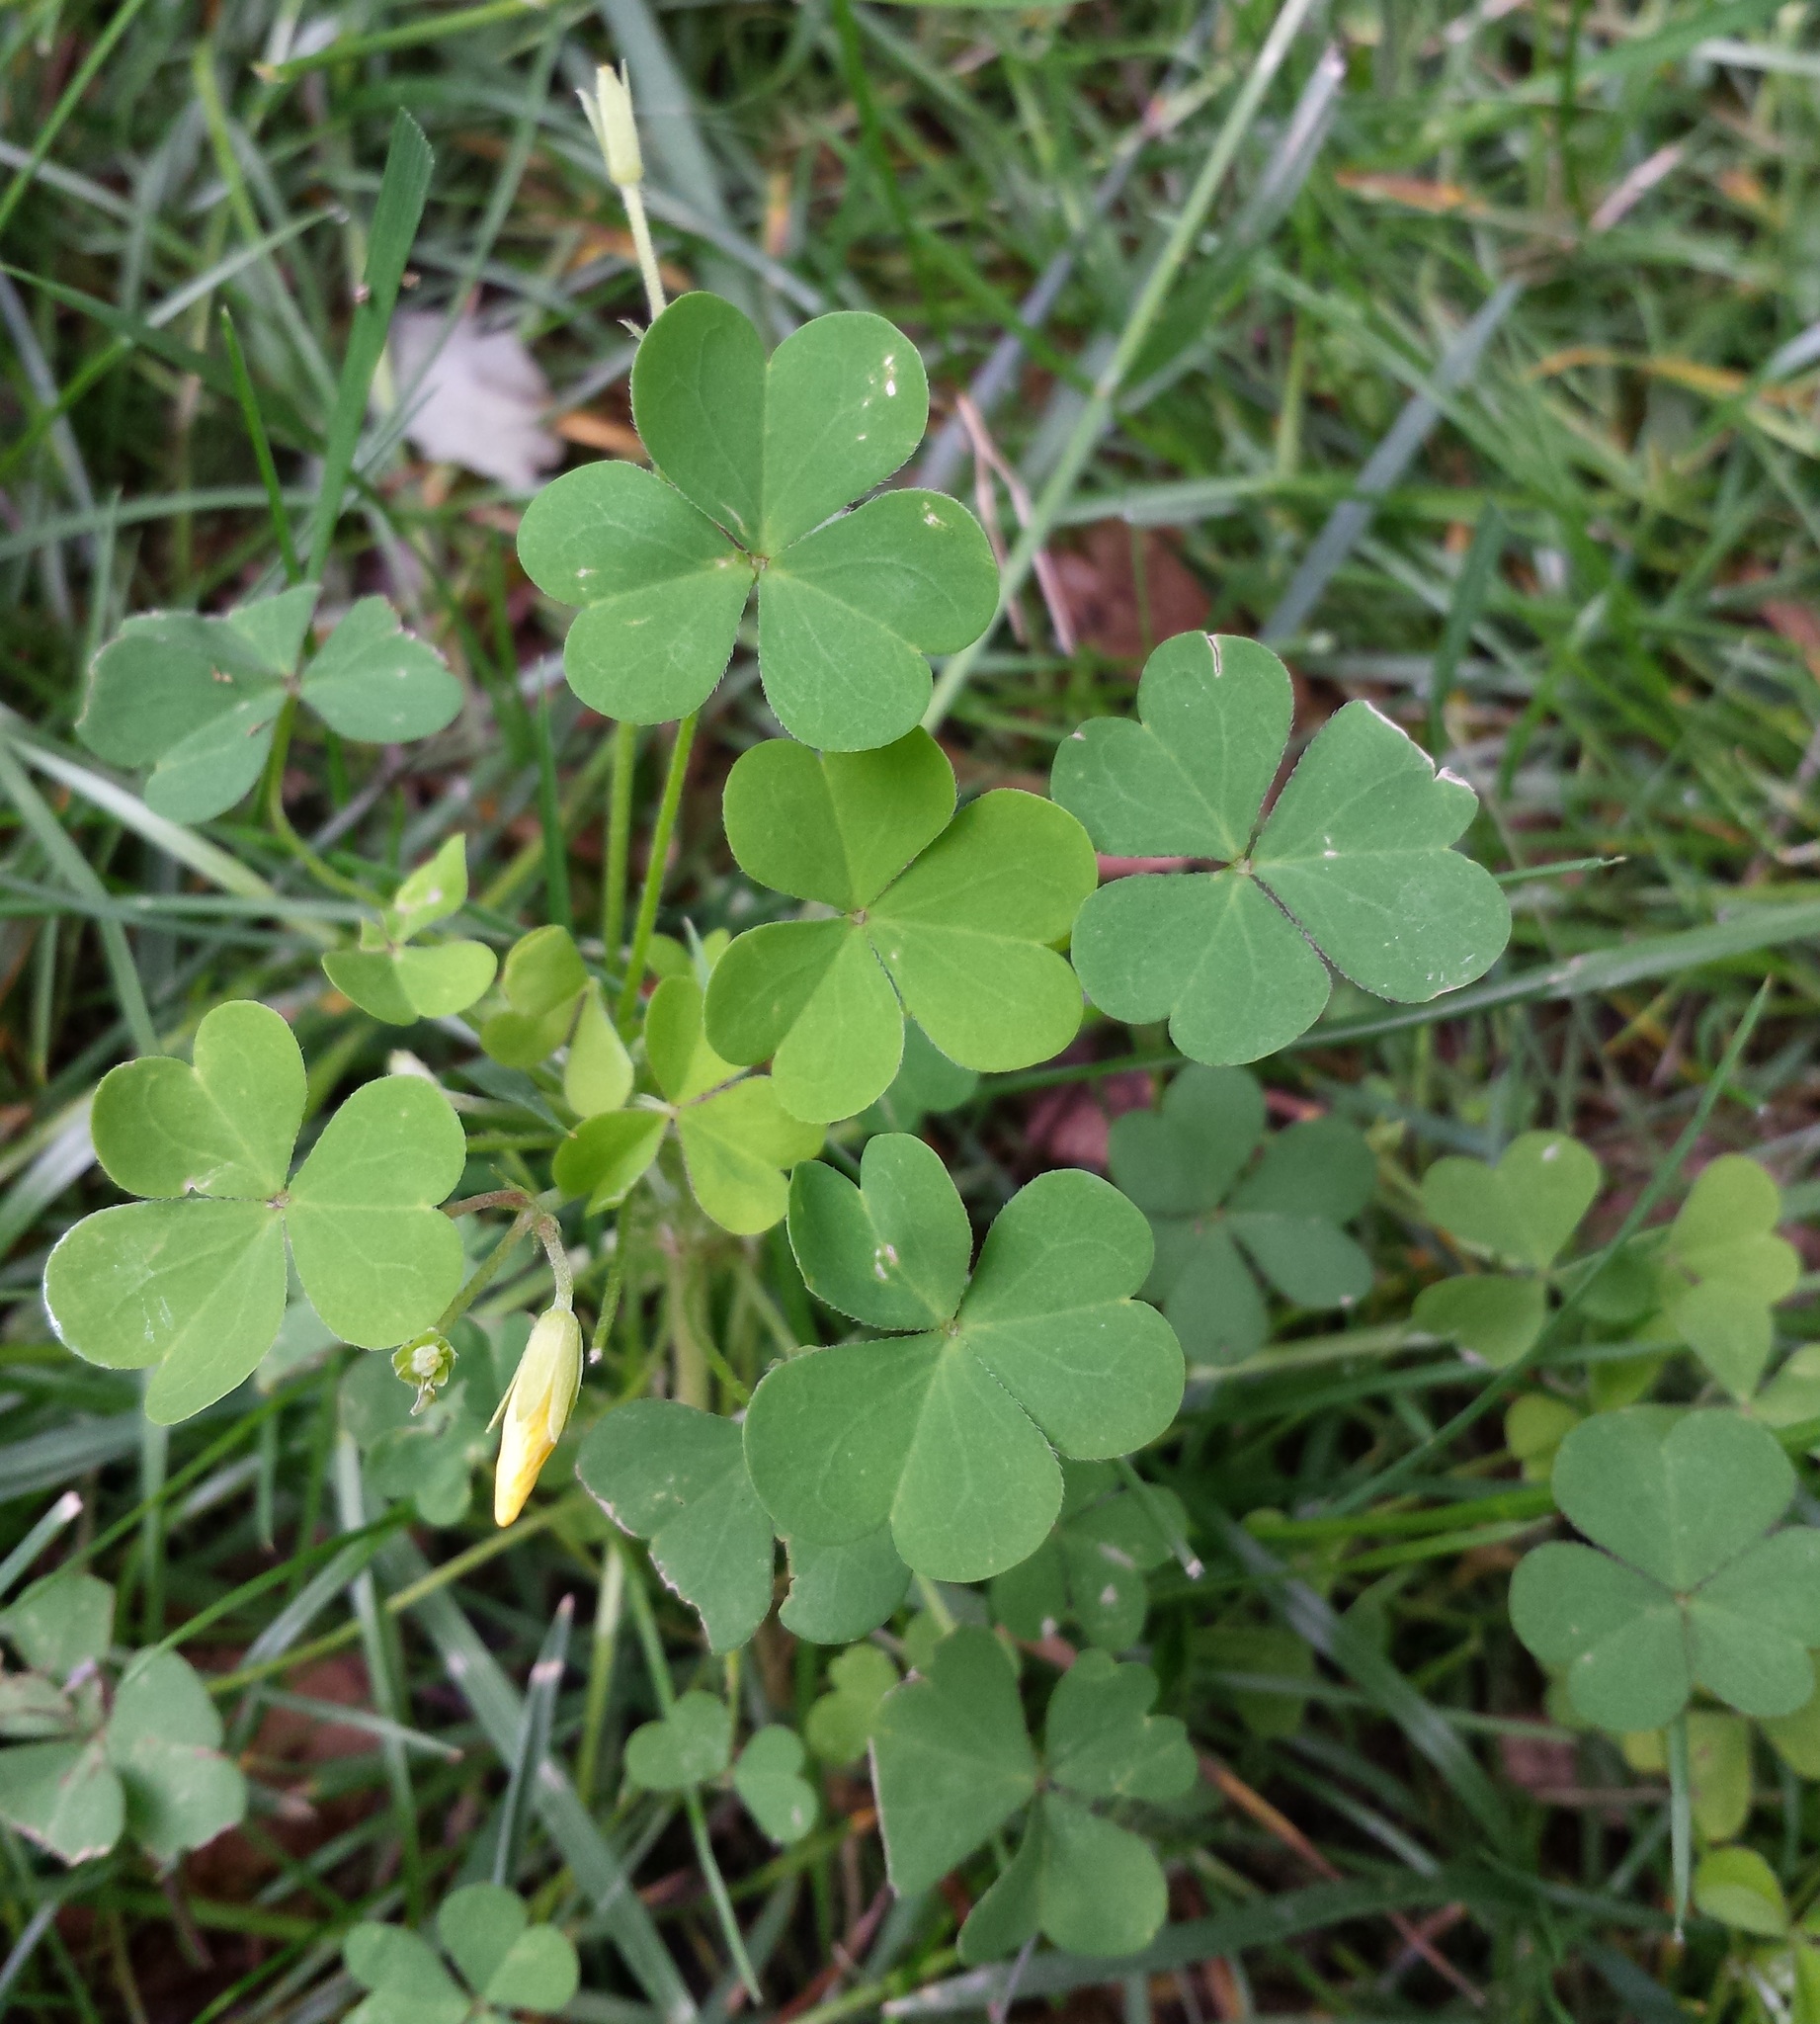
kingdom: Plantae
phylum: Tracheophyta
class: Magnoliopsida
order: Oxalidales
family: Oxalidaceae
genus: Oxalis
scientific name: Oxalis dillenii
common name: Sussex yellow-sorrel
